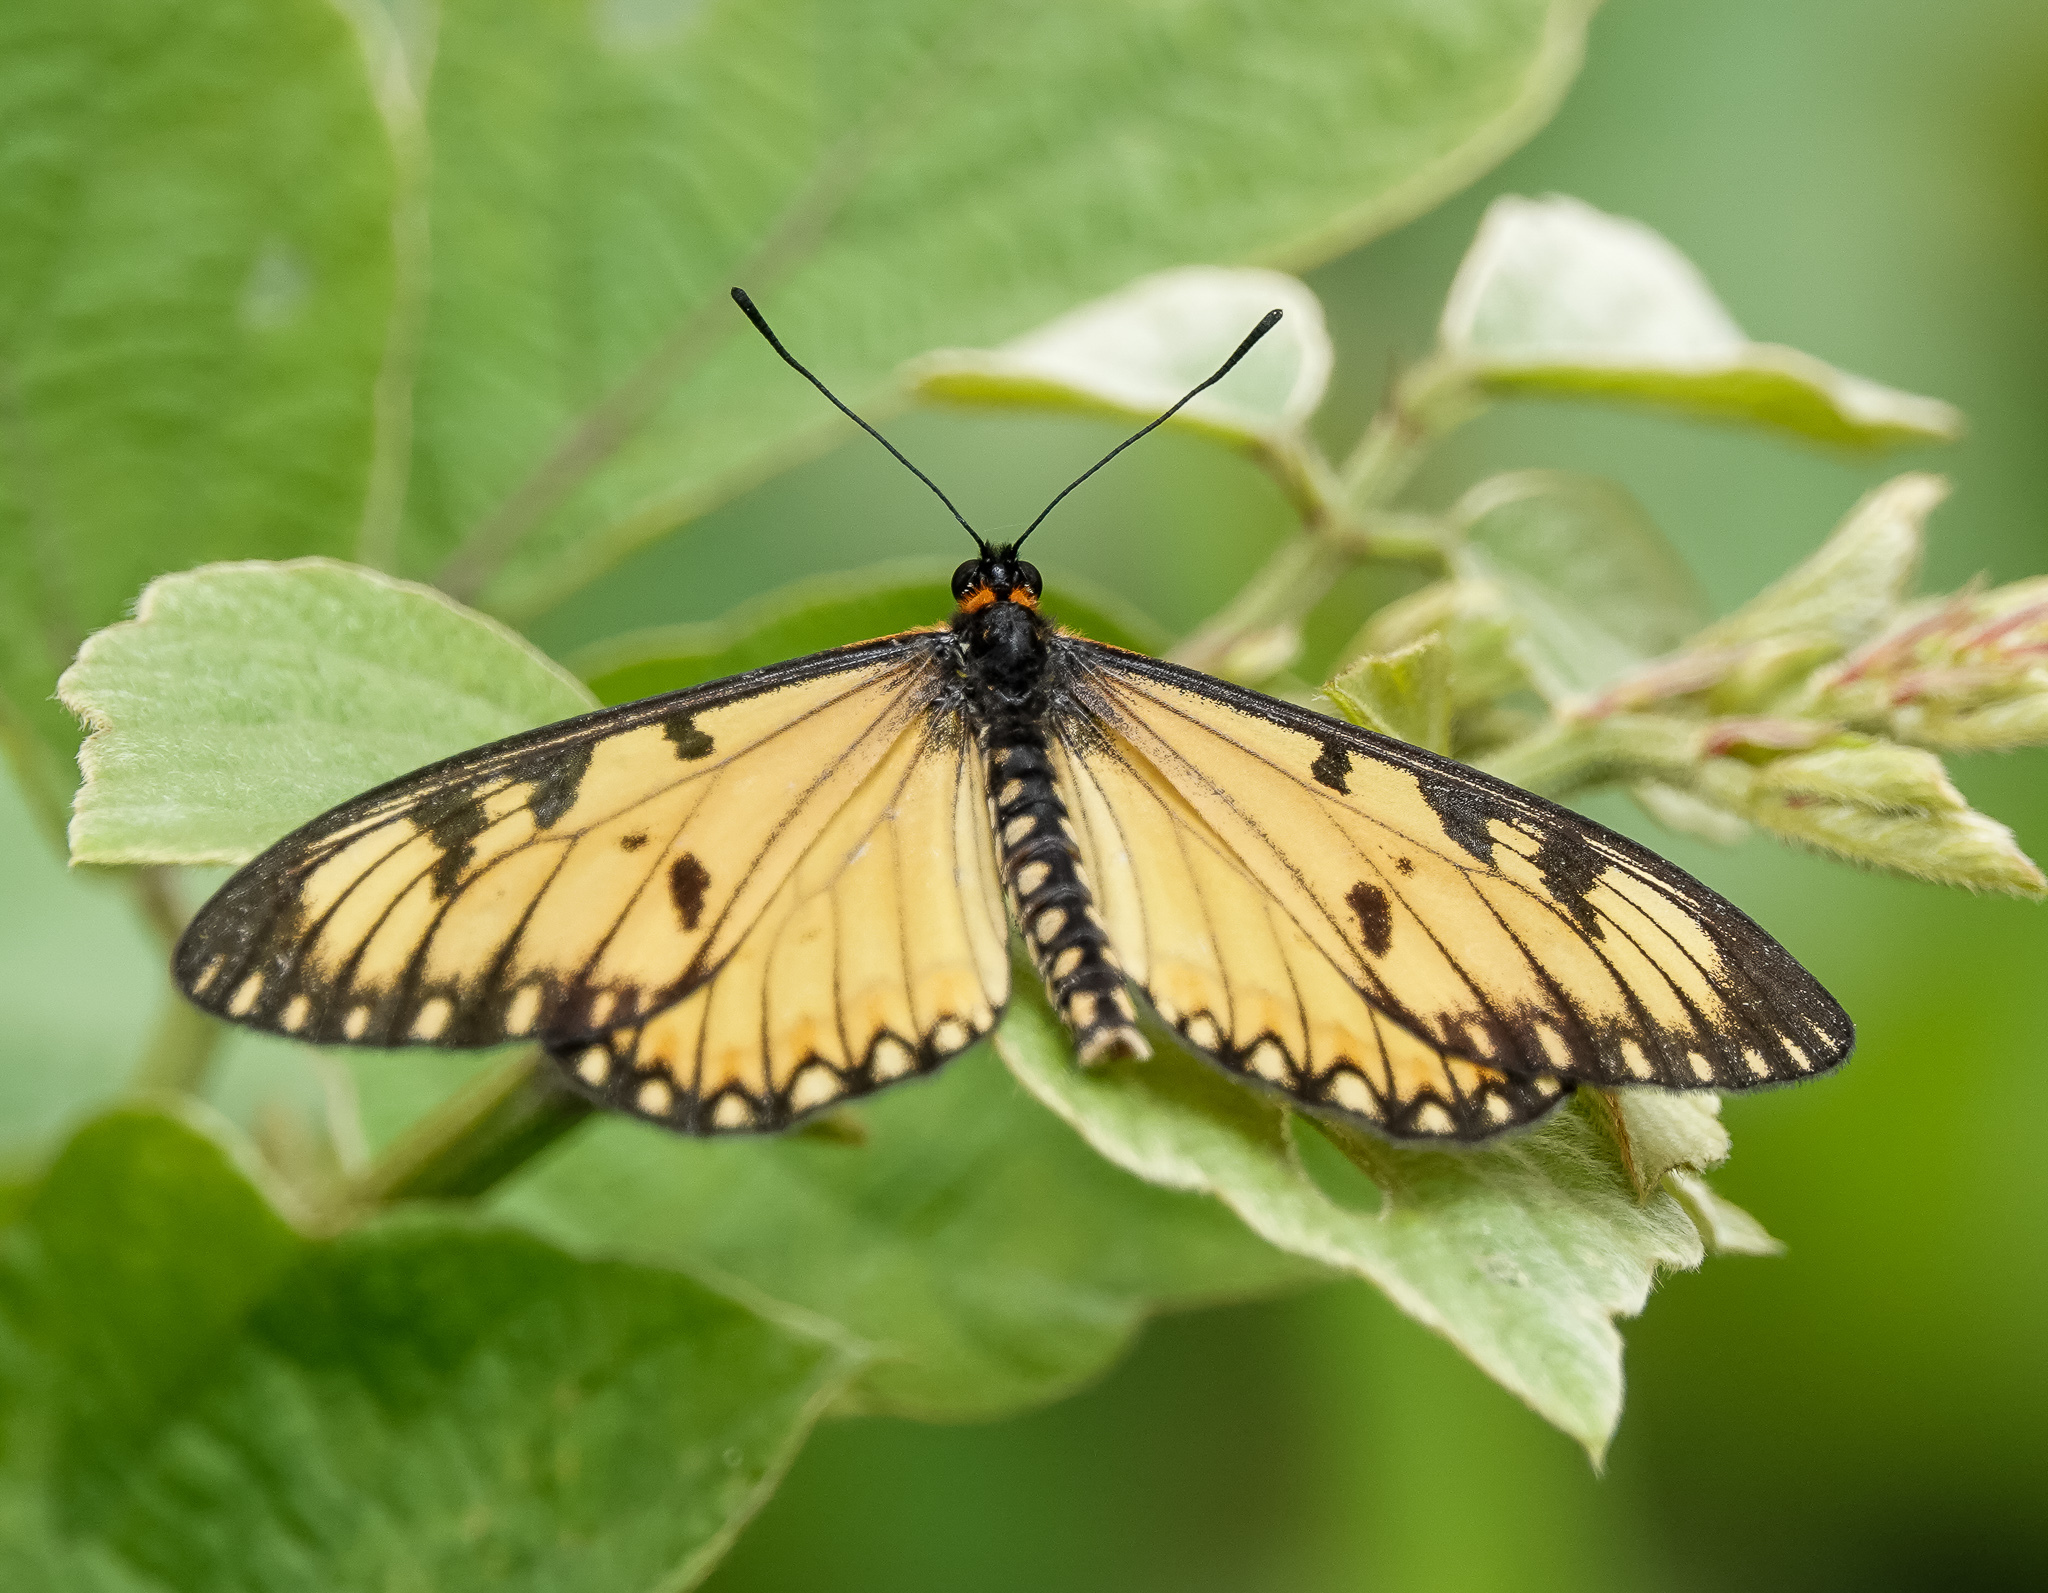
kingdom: Animalia
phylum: Arthropoda
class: Insecta
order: Lepidoptera
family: Nymphalidae
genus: Acraea
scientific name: Acraea Telchinia issoria
